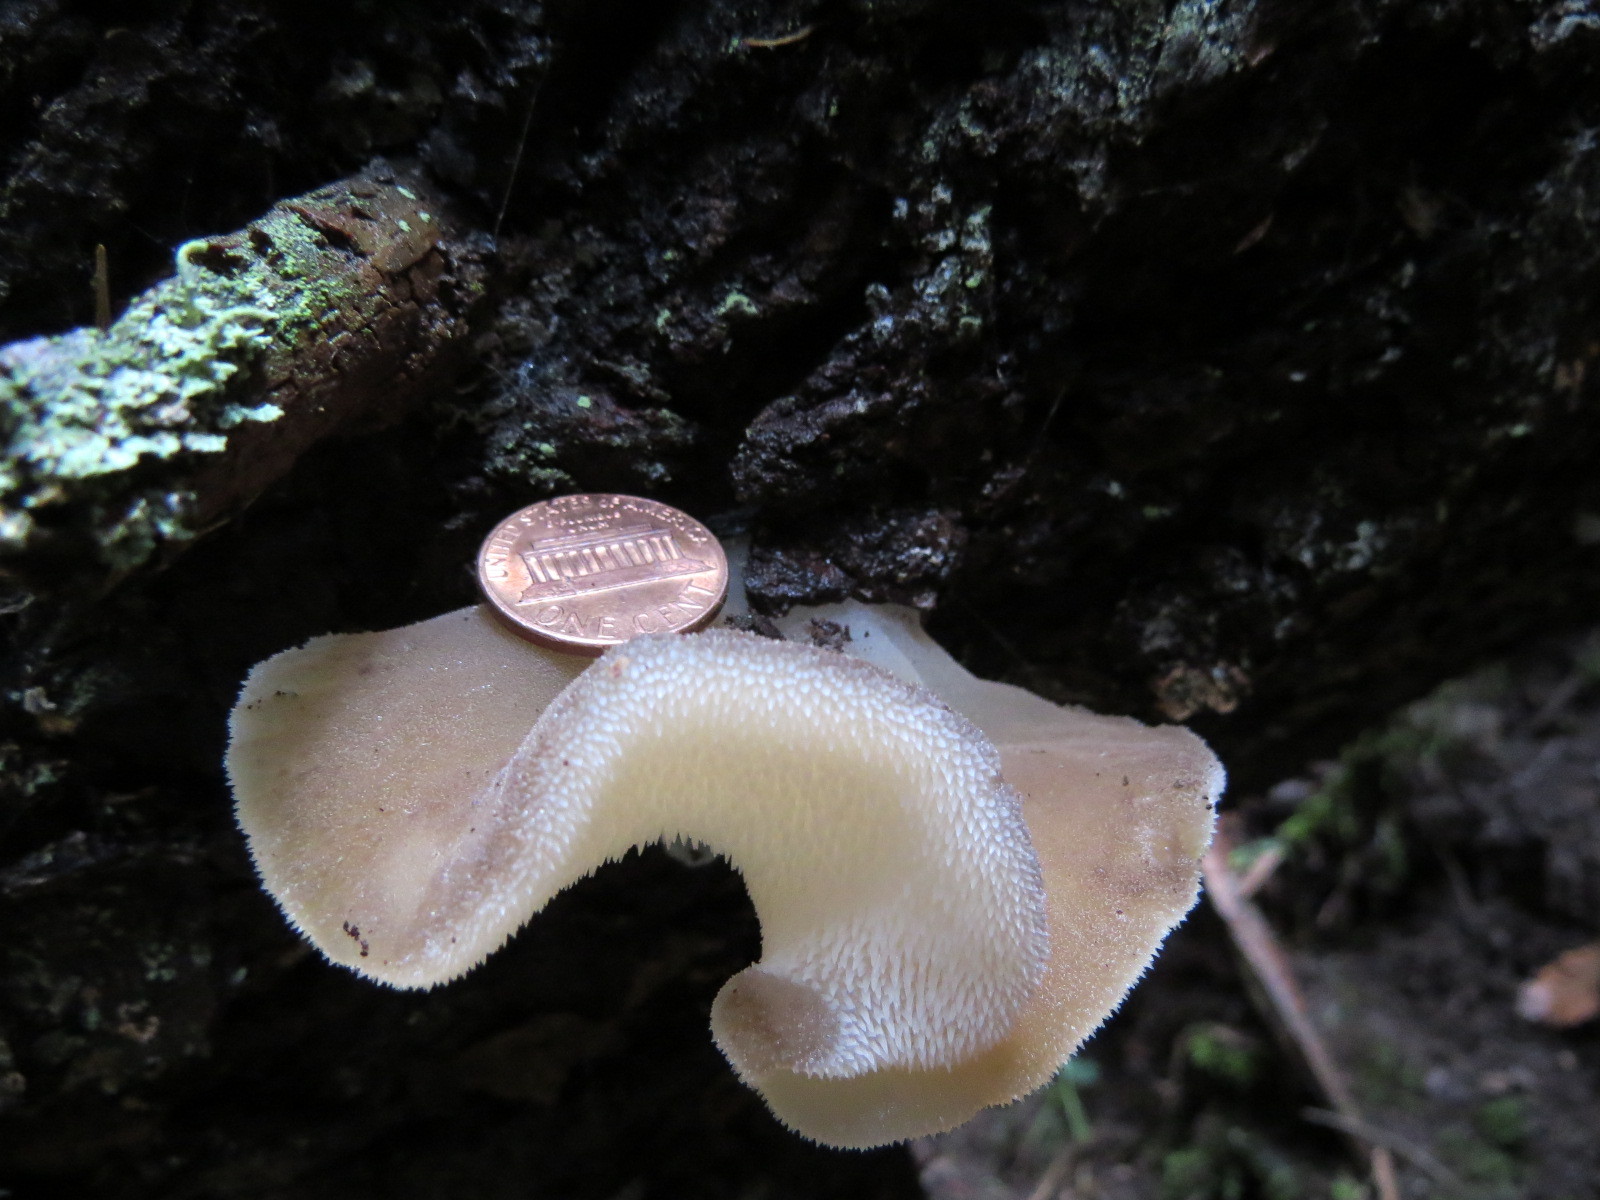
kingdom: Fungi
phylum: Basidiomycota
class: Agaricomycetes
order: Auriculariales
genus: Pseudohydnum
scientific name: Pseudohydnum gelatinosum
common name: Jelly tongue
